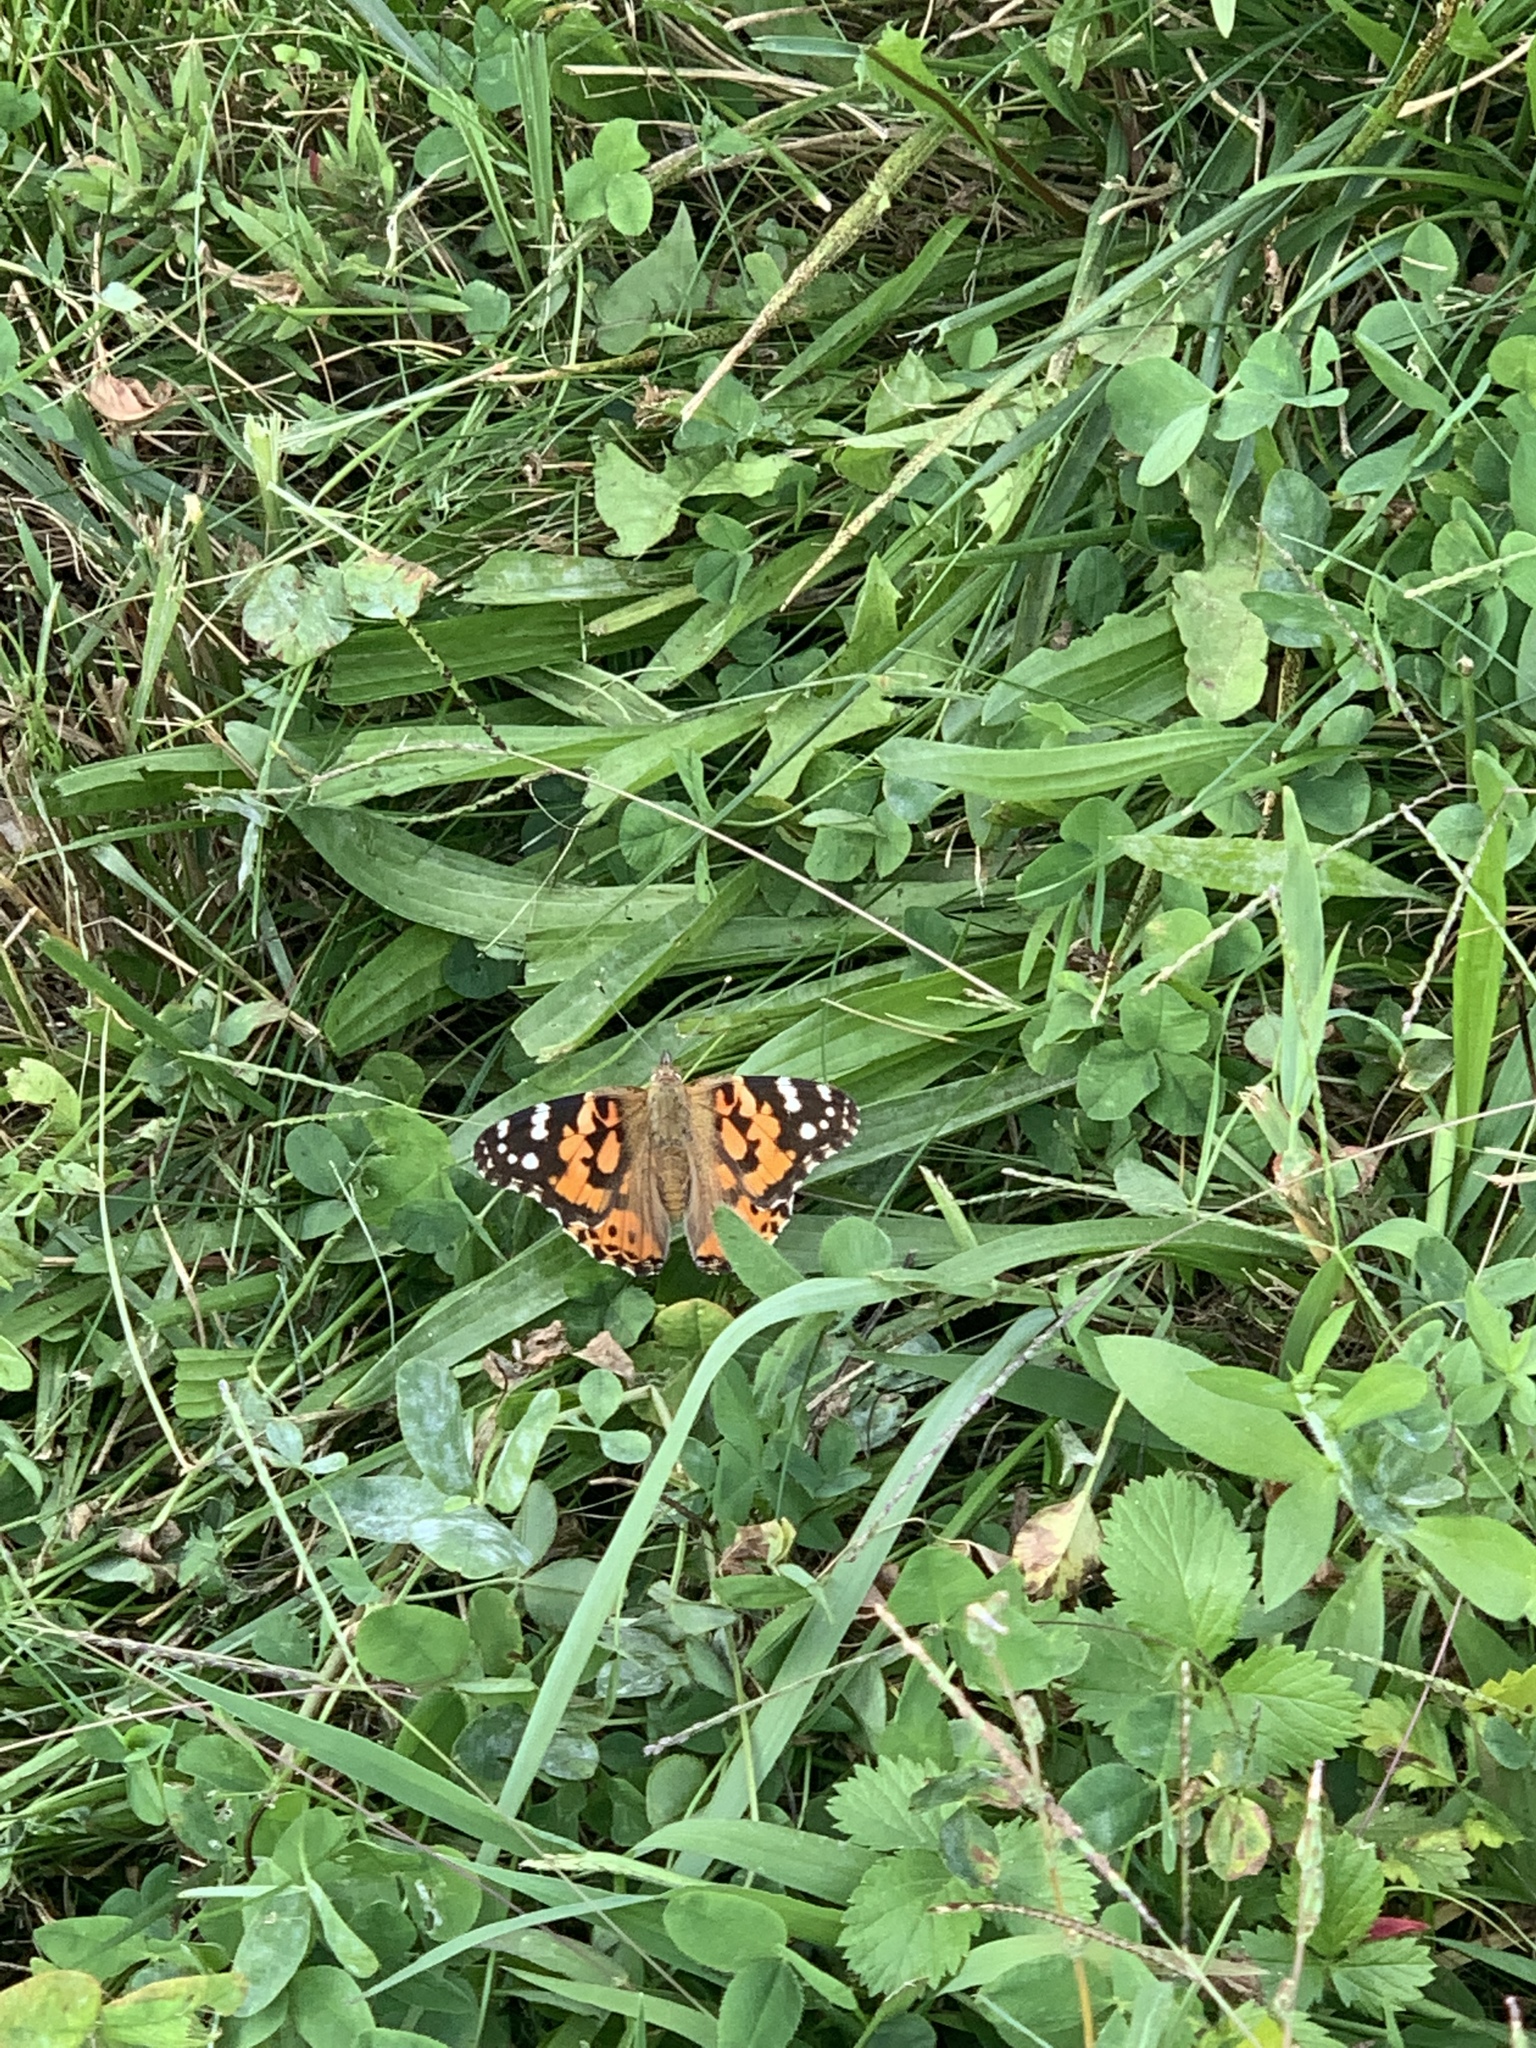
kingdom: Animalia
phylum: Arthropoda
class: Insecta
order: Lepidoptera
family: Nymphalidae
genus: Vanessa
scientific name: Vanessa cardui
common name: Painted lady
